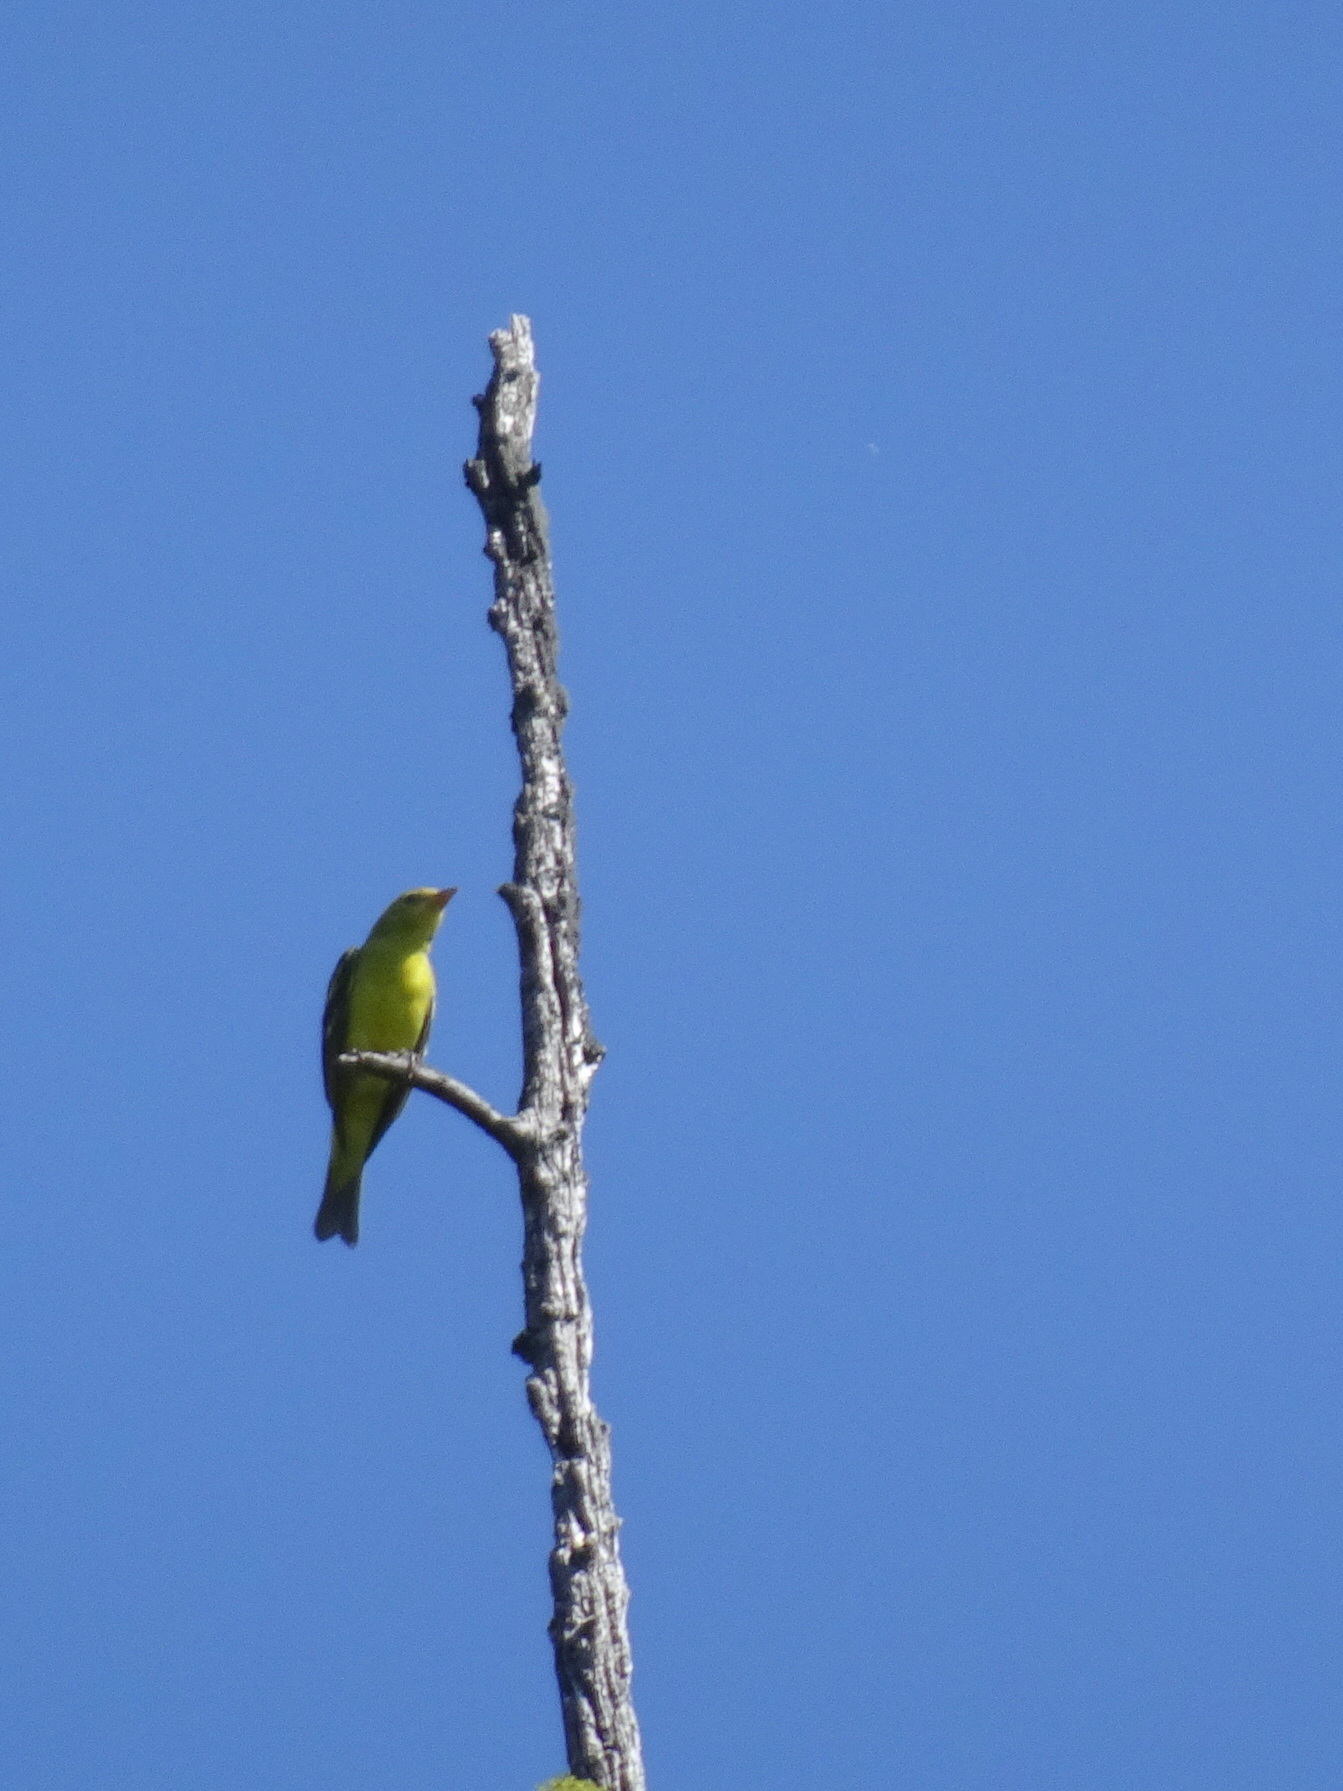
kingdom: Animalia
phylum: Chordata
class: Aves
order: Passeriformes
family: Cardinalidae
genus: Piranga
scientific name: Piranga ludoviciana
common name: Western tanager
